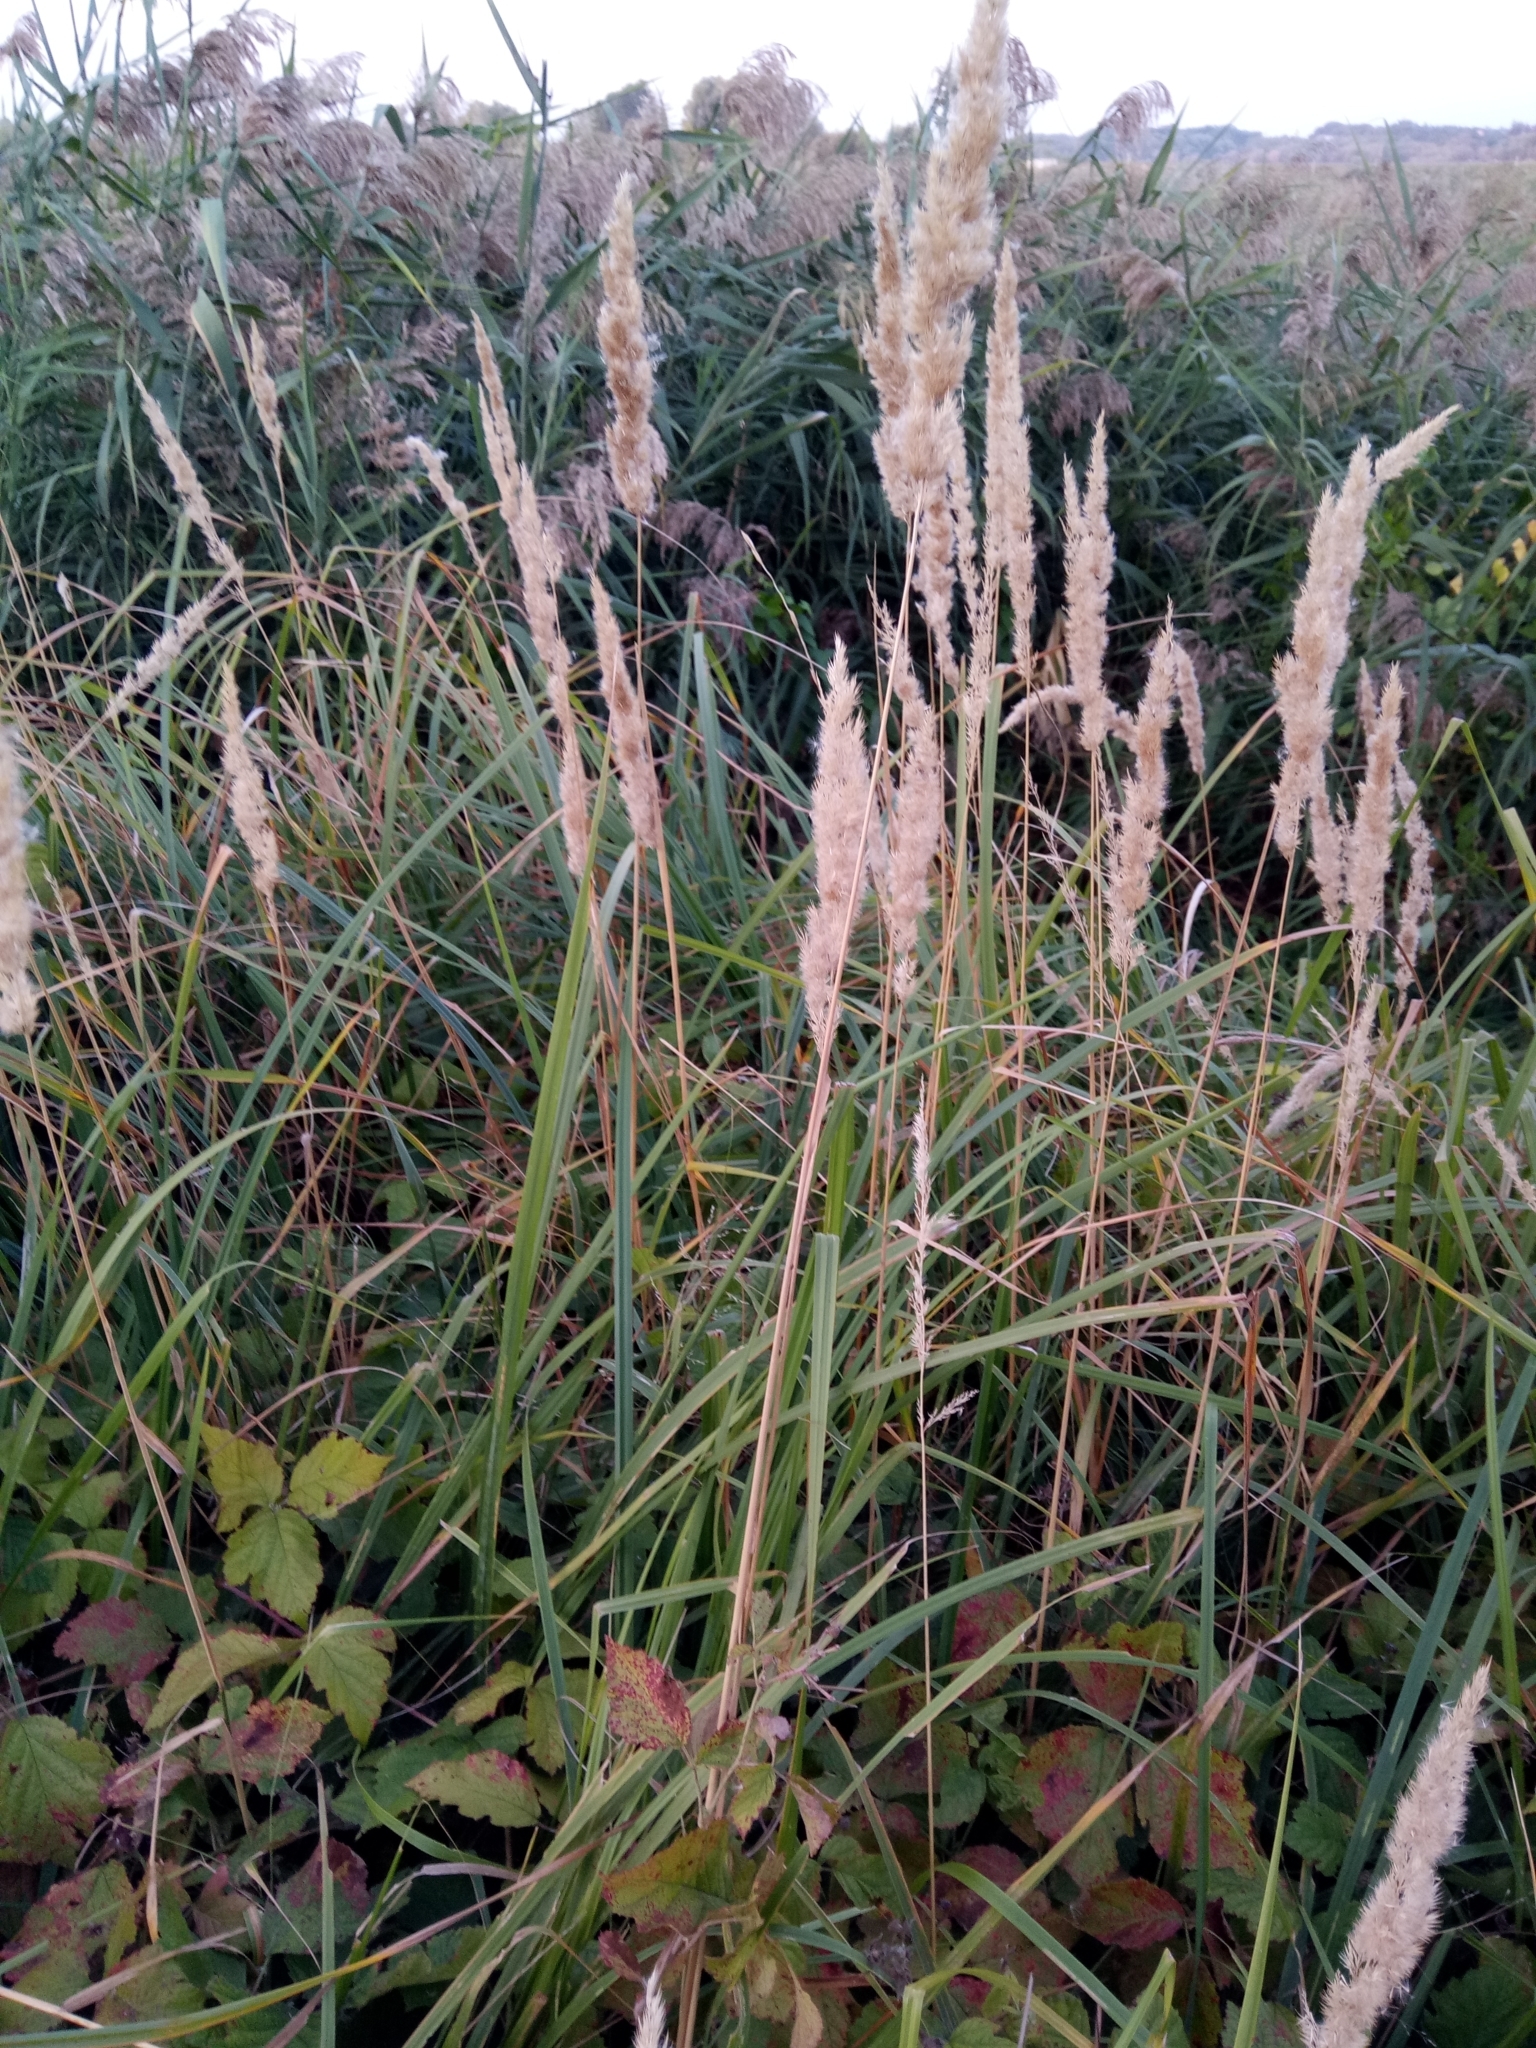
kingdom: Plantae
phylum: Tracheophyta
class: Liliopsida
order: Poales
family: Poaceae
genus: Calamagrostis
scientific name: Calamagrostis epigejos
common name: Wood small-reed
